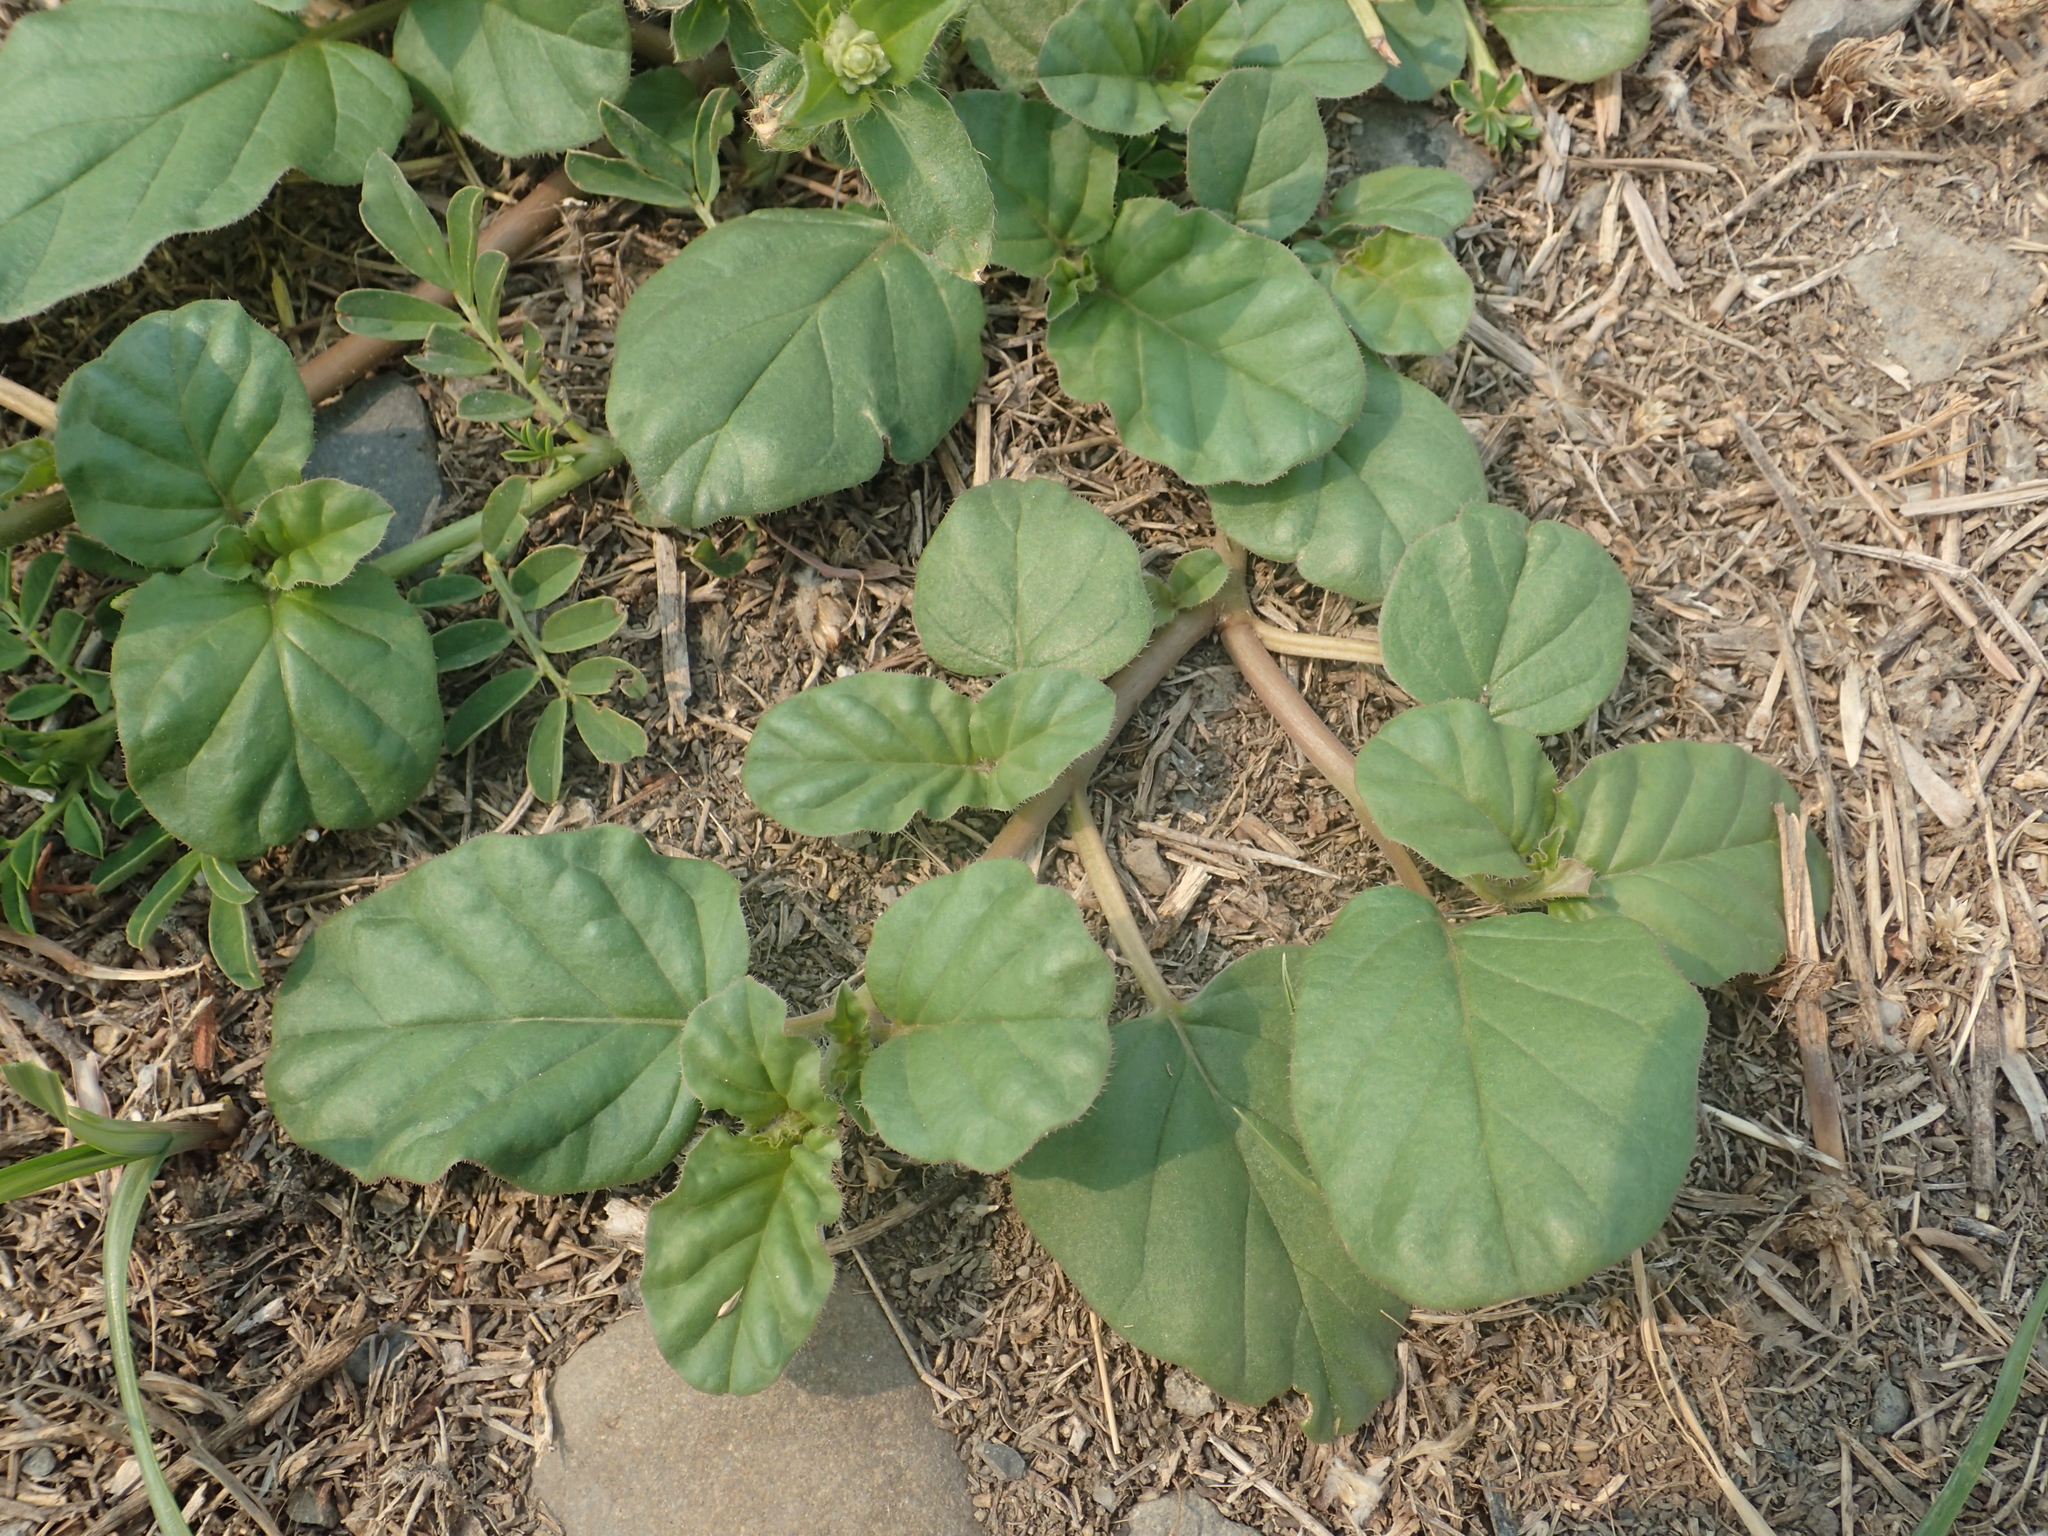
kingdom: Plantae
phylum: Tracheophyta
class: Magnoliopsida
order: Caryophyllales
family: Nyctaginaceae
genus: Boerhavia
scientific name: Boerhavia coccinea
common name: Scarlet spiderling
